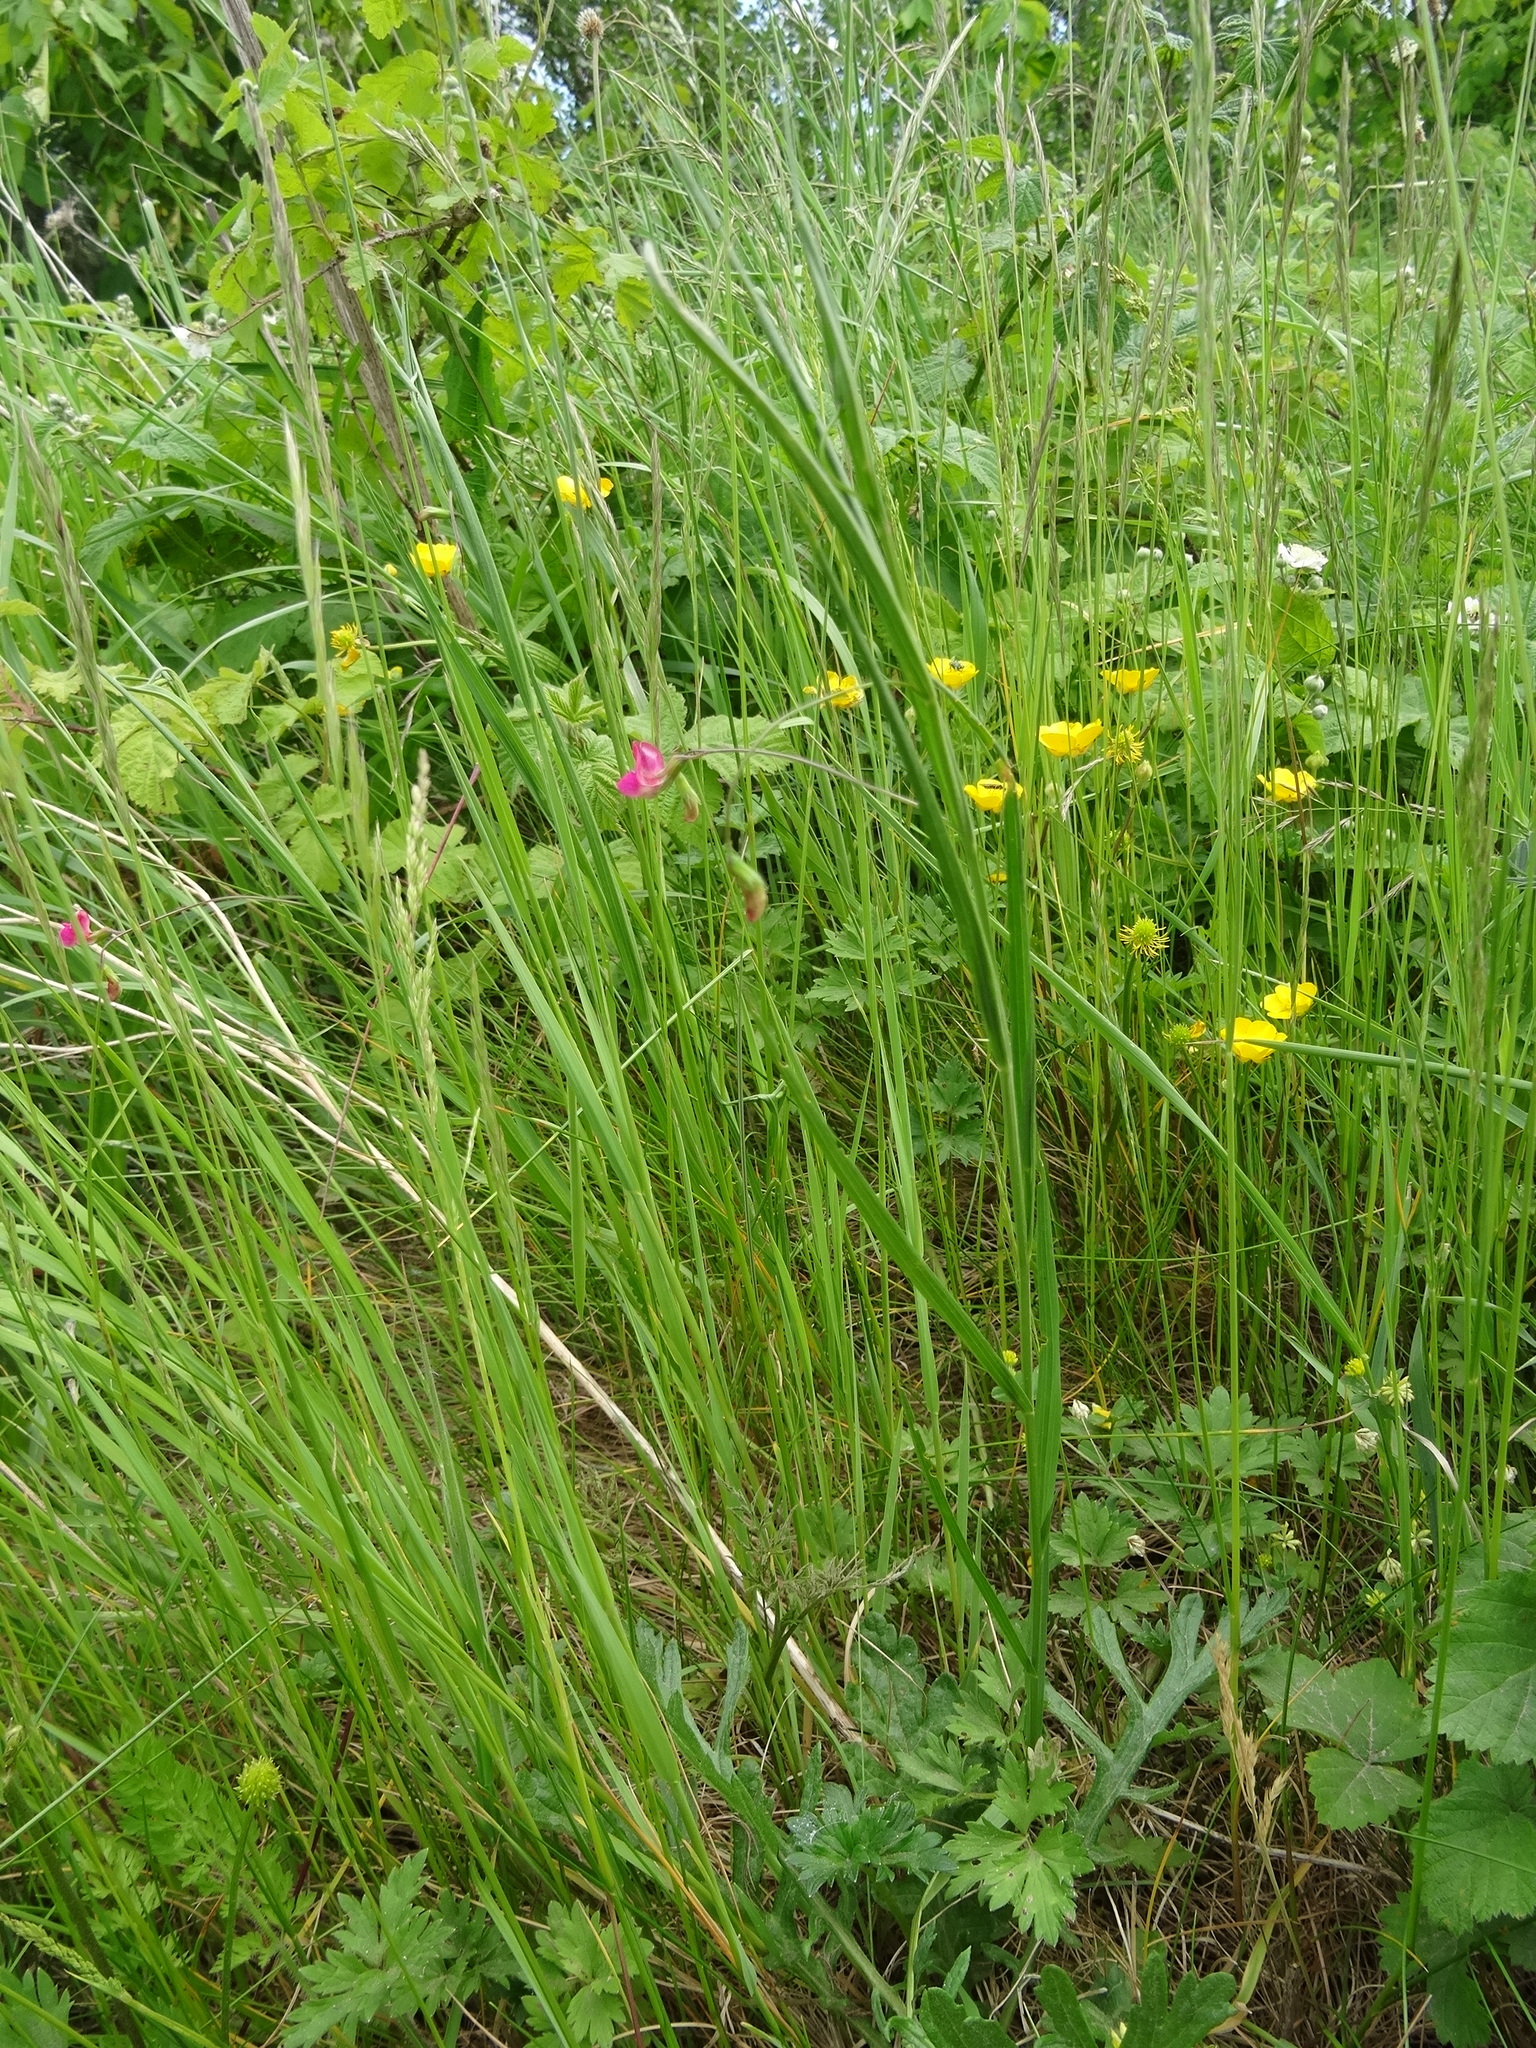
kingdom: Plantae
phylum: Tracheophyta
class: Magnoliopsida
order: Fabales
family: Fabaceae
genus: Lathyrus
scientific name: Lathyrus nissolia
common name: Grass vetchling
